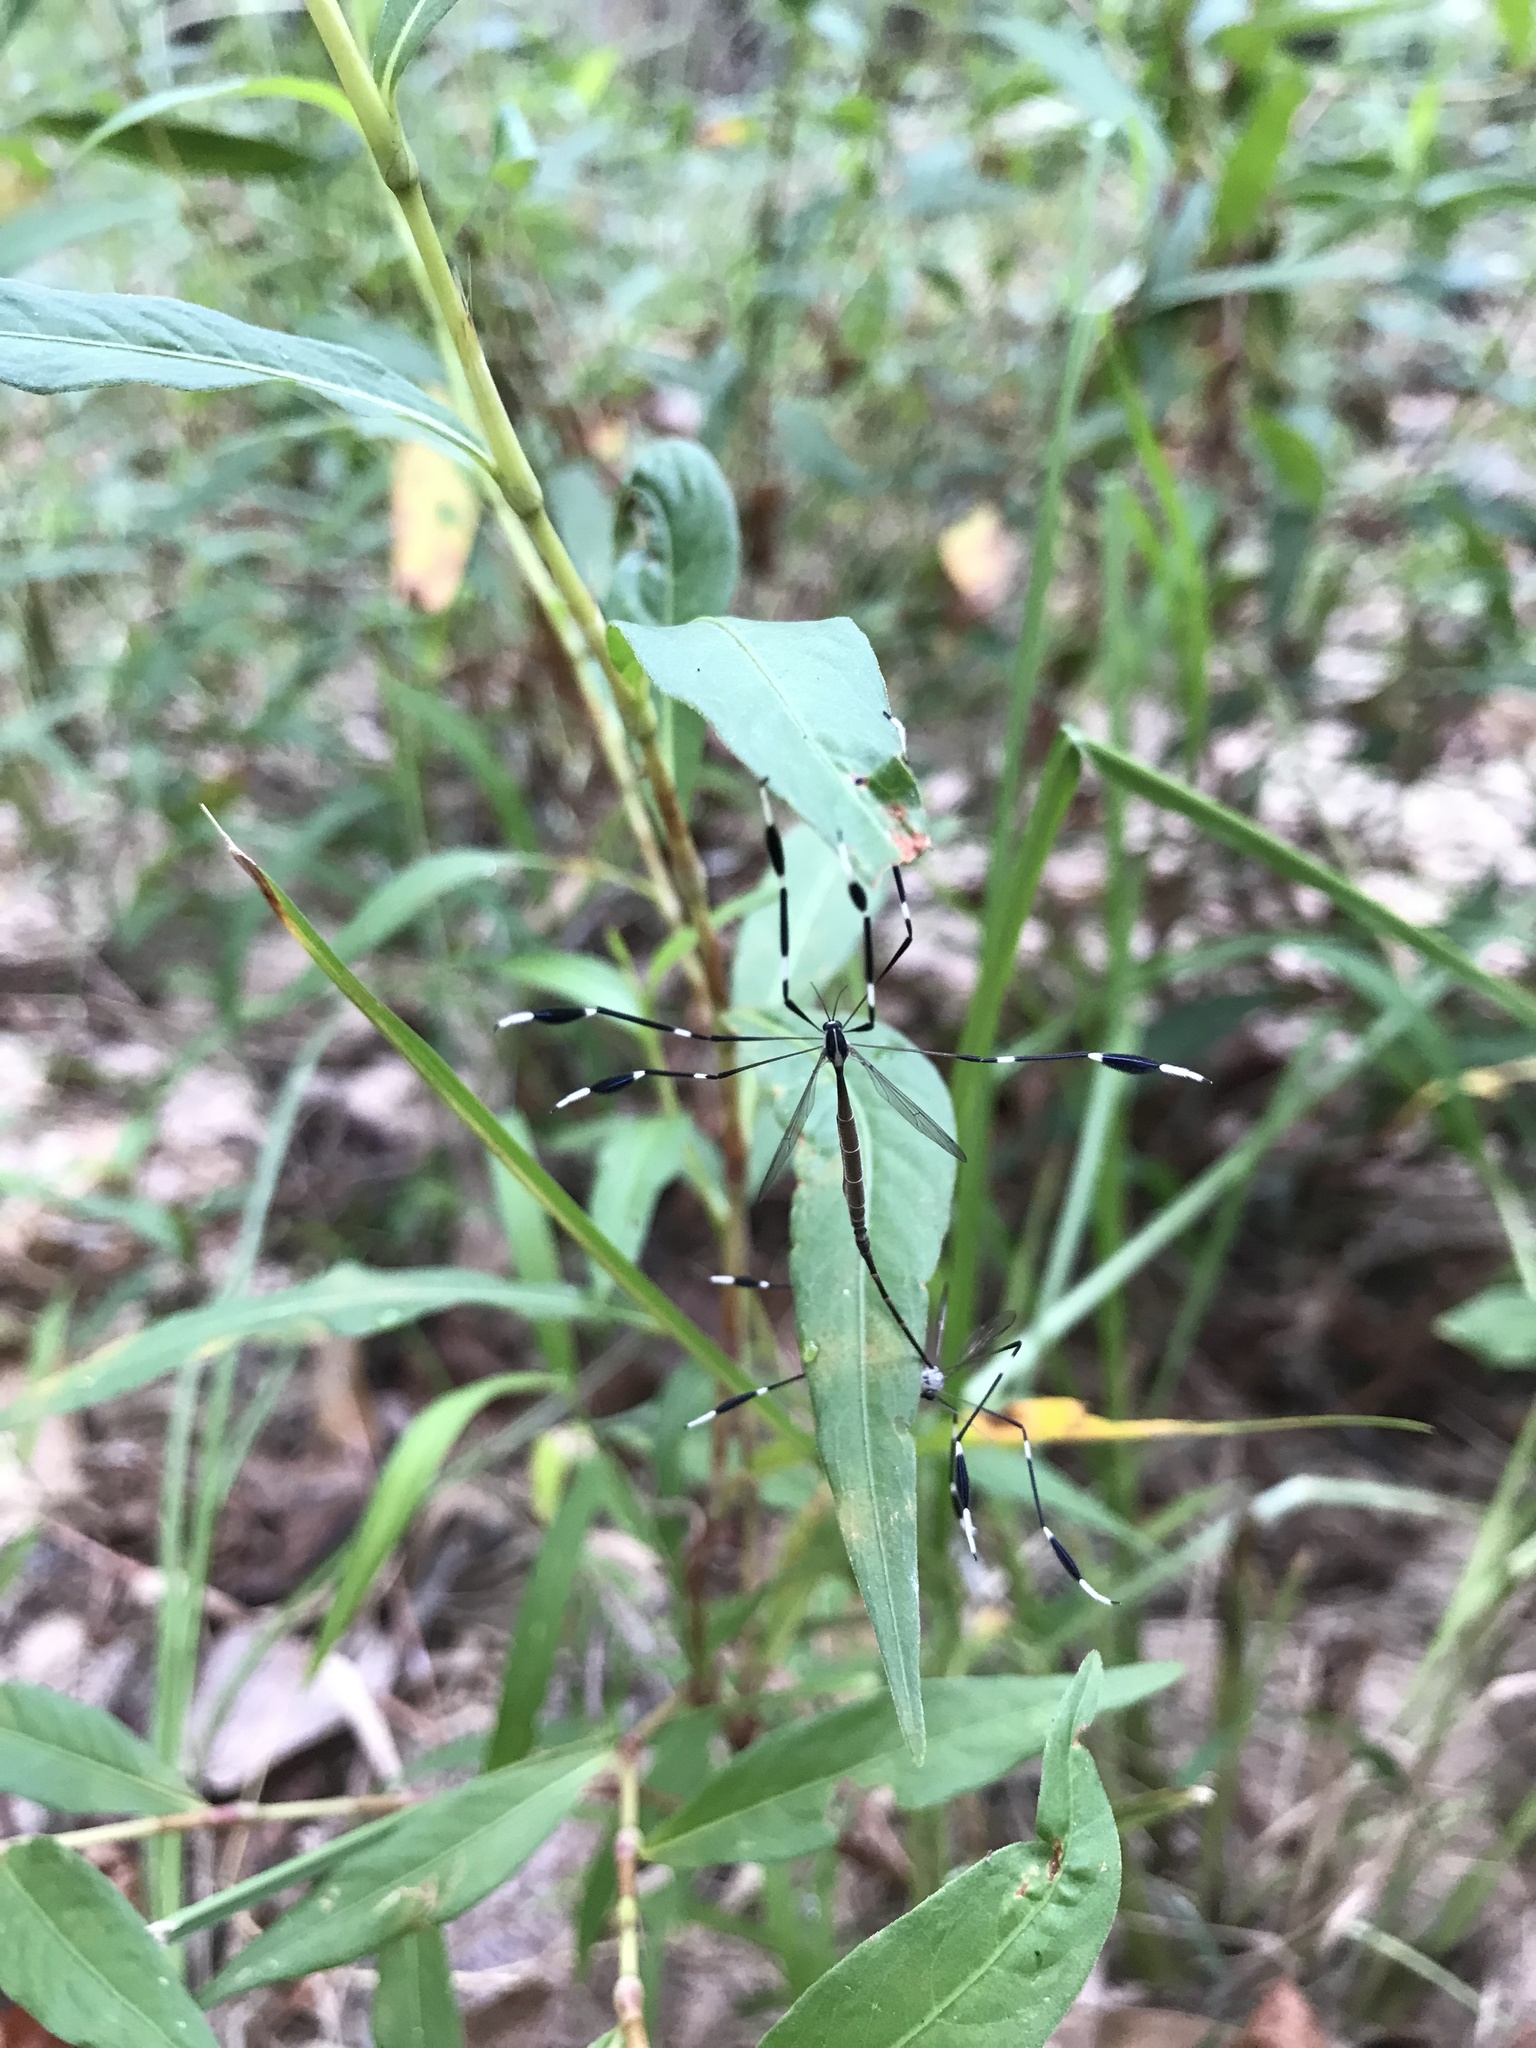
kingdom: Animalia
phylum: Arthropoda
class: Insecta
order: Diptera
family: Ptychopteridae
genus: Bittacomorpha
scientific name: Bittacomorpha clavipes
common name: Eastern phantom crane fly
